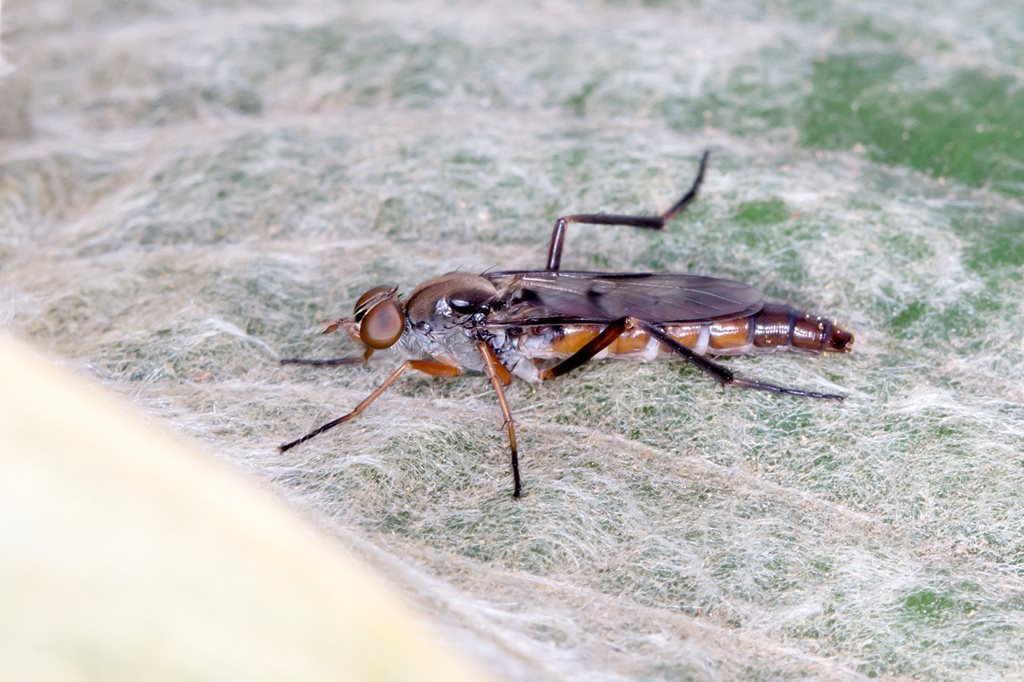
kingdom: Animalia
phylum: Arthropoda
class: Insecta
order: Diptera
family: Therevidae
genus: Taenogerella
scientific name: Taenogerella elizabethae
